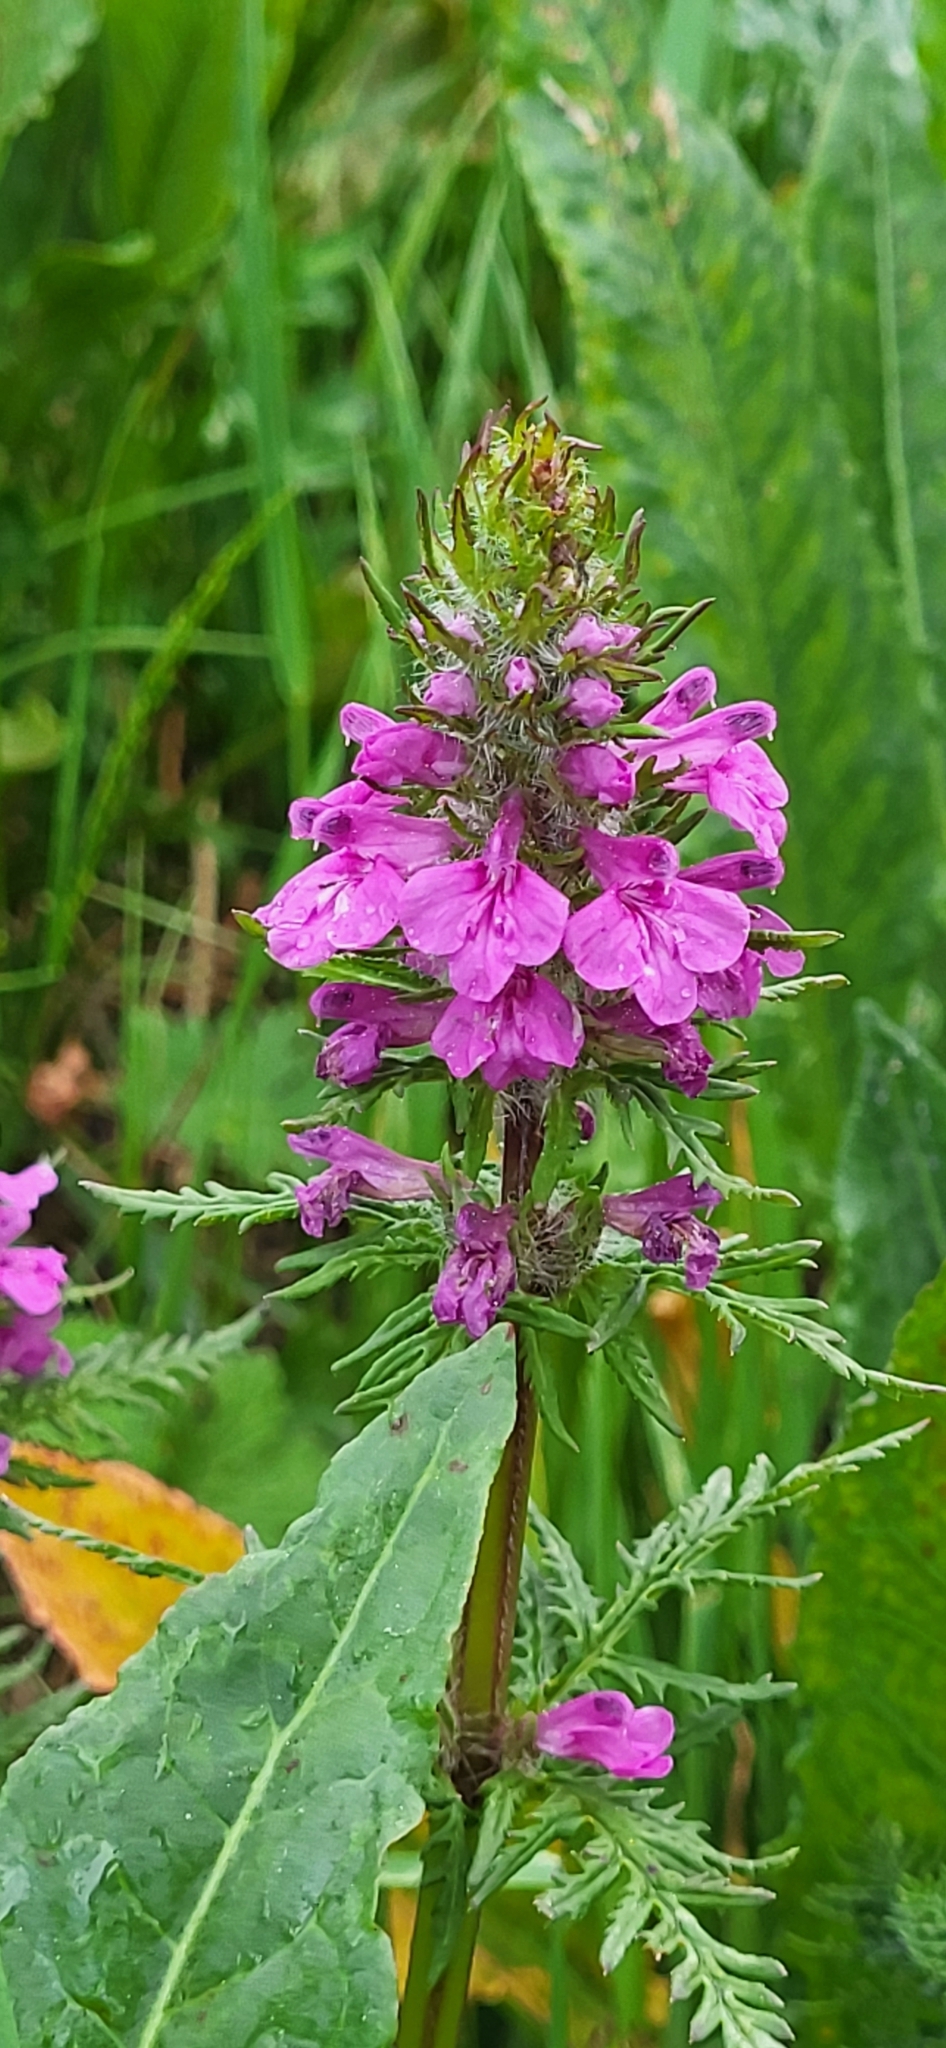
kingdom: Plantae
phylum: Tracheophyta
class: Magnoliopsida
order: Lamiales
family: Orobanchaceae
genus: Pedicularis
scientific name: Pedicularis macrochila
